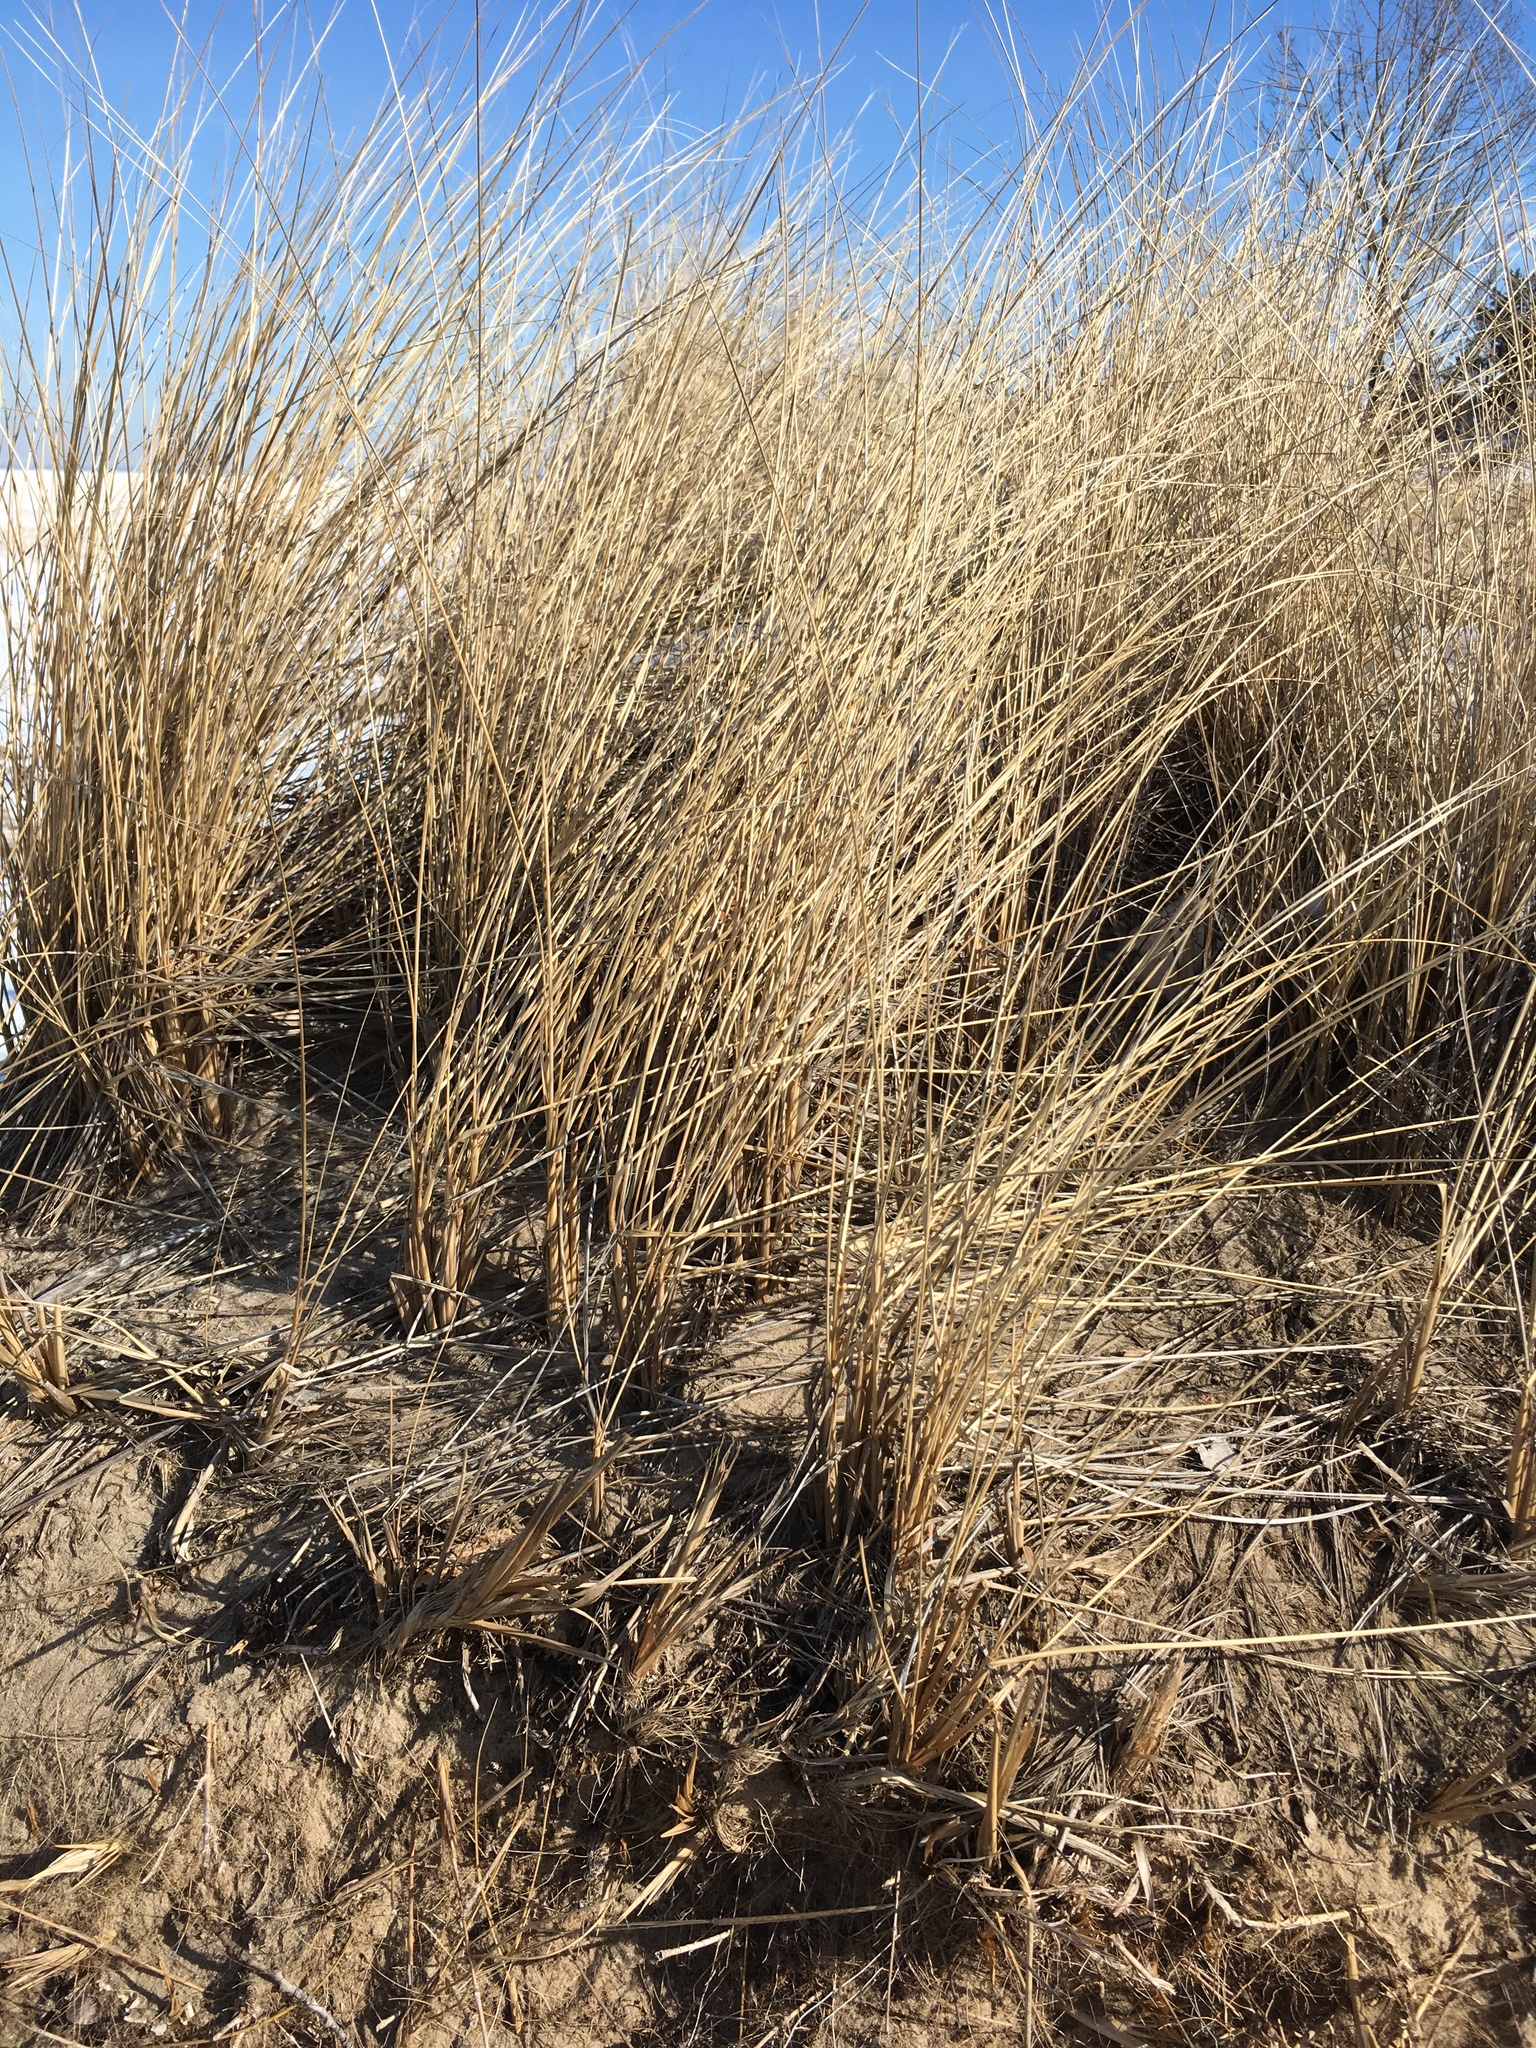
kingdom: Plantae
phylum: Tracheophyta
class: Liliopsida
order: Poales
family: Poaceae
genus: Calamagrostis
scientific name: Calamagrostis breviligulata
